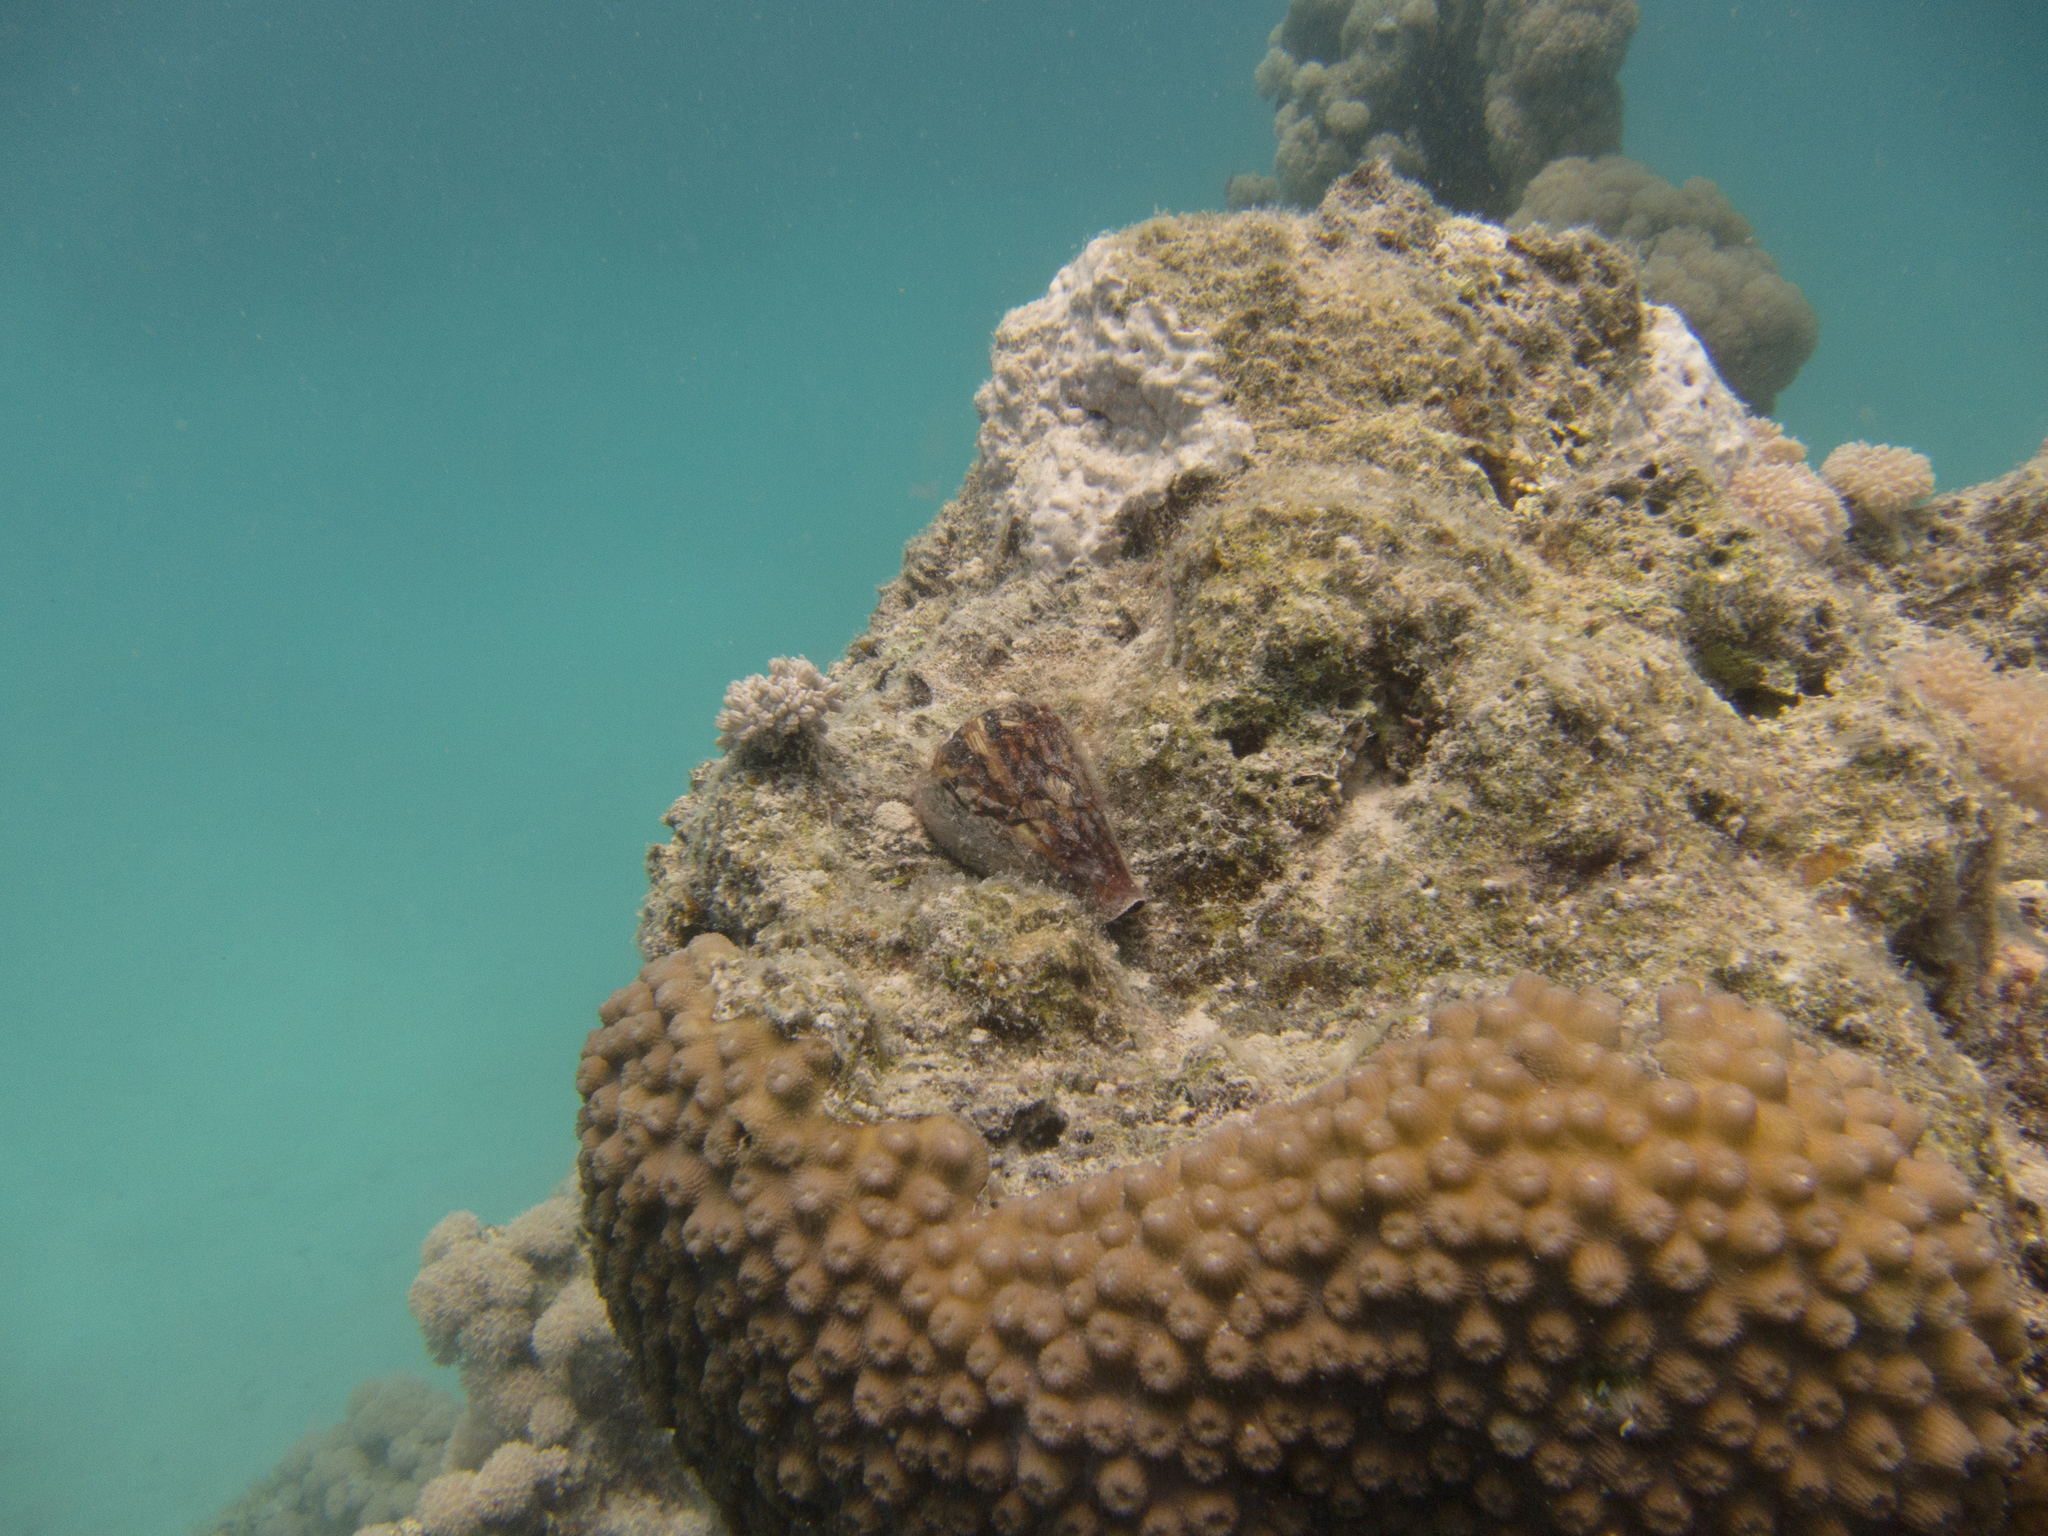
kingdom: Animalia
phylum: Cnidaria
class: Anthozoa
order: Scleractinia
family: Merulinidae
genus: Echinopora
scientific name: Echinopora forskaliana
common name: Hedgehog coral
